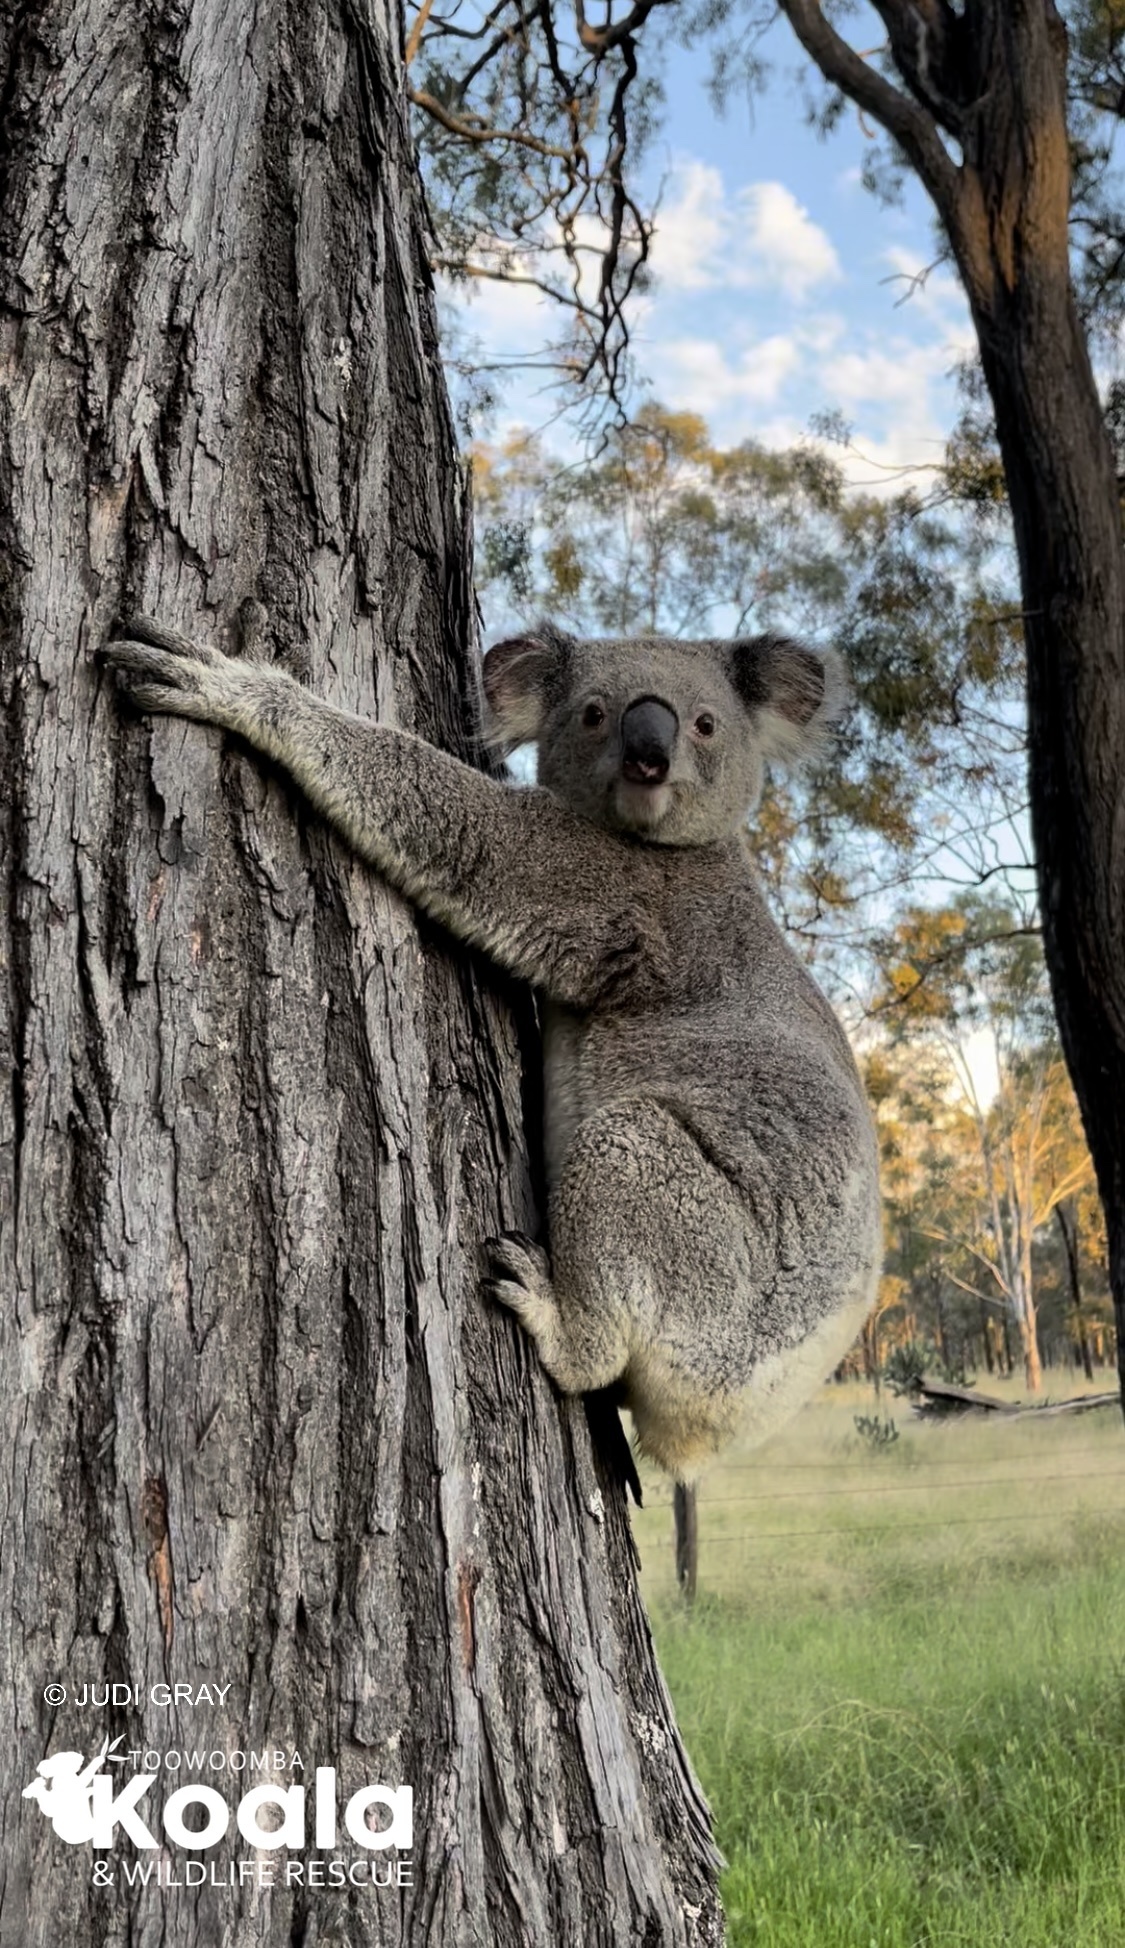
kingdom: Animalia
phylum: Chordata
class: Mammalia
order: Diprotodontia
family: Phascolarctidae
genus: Phascolarctos
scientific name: Phascolarctos cinereus
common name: Koala
